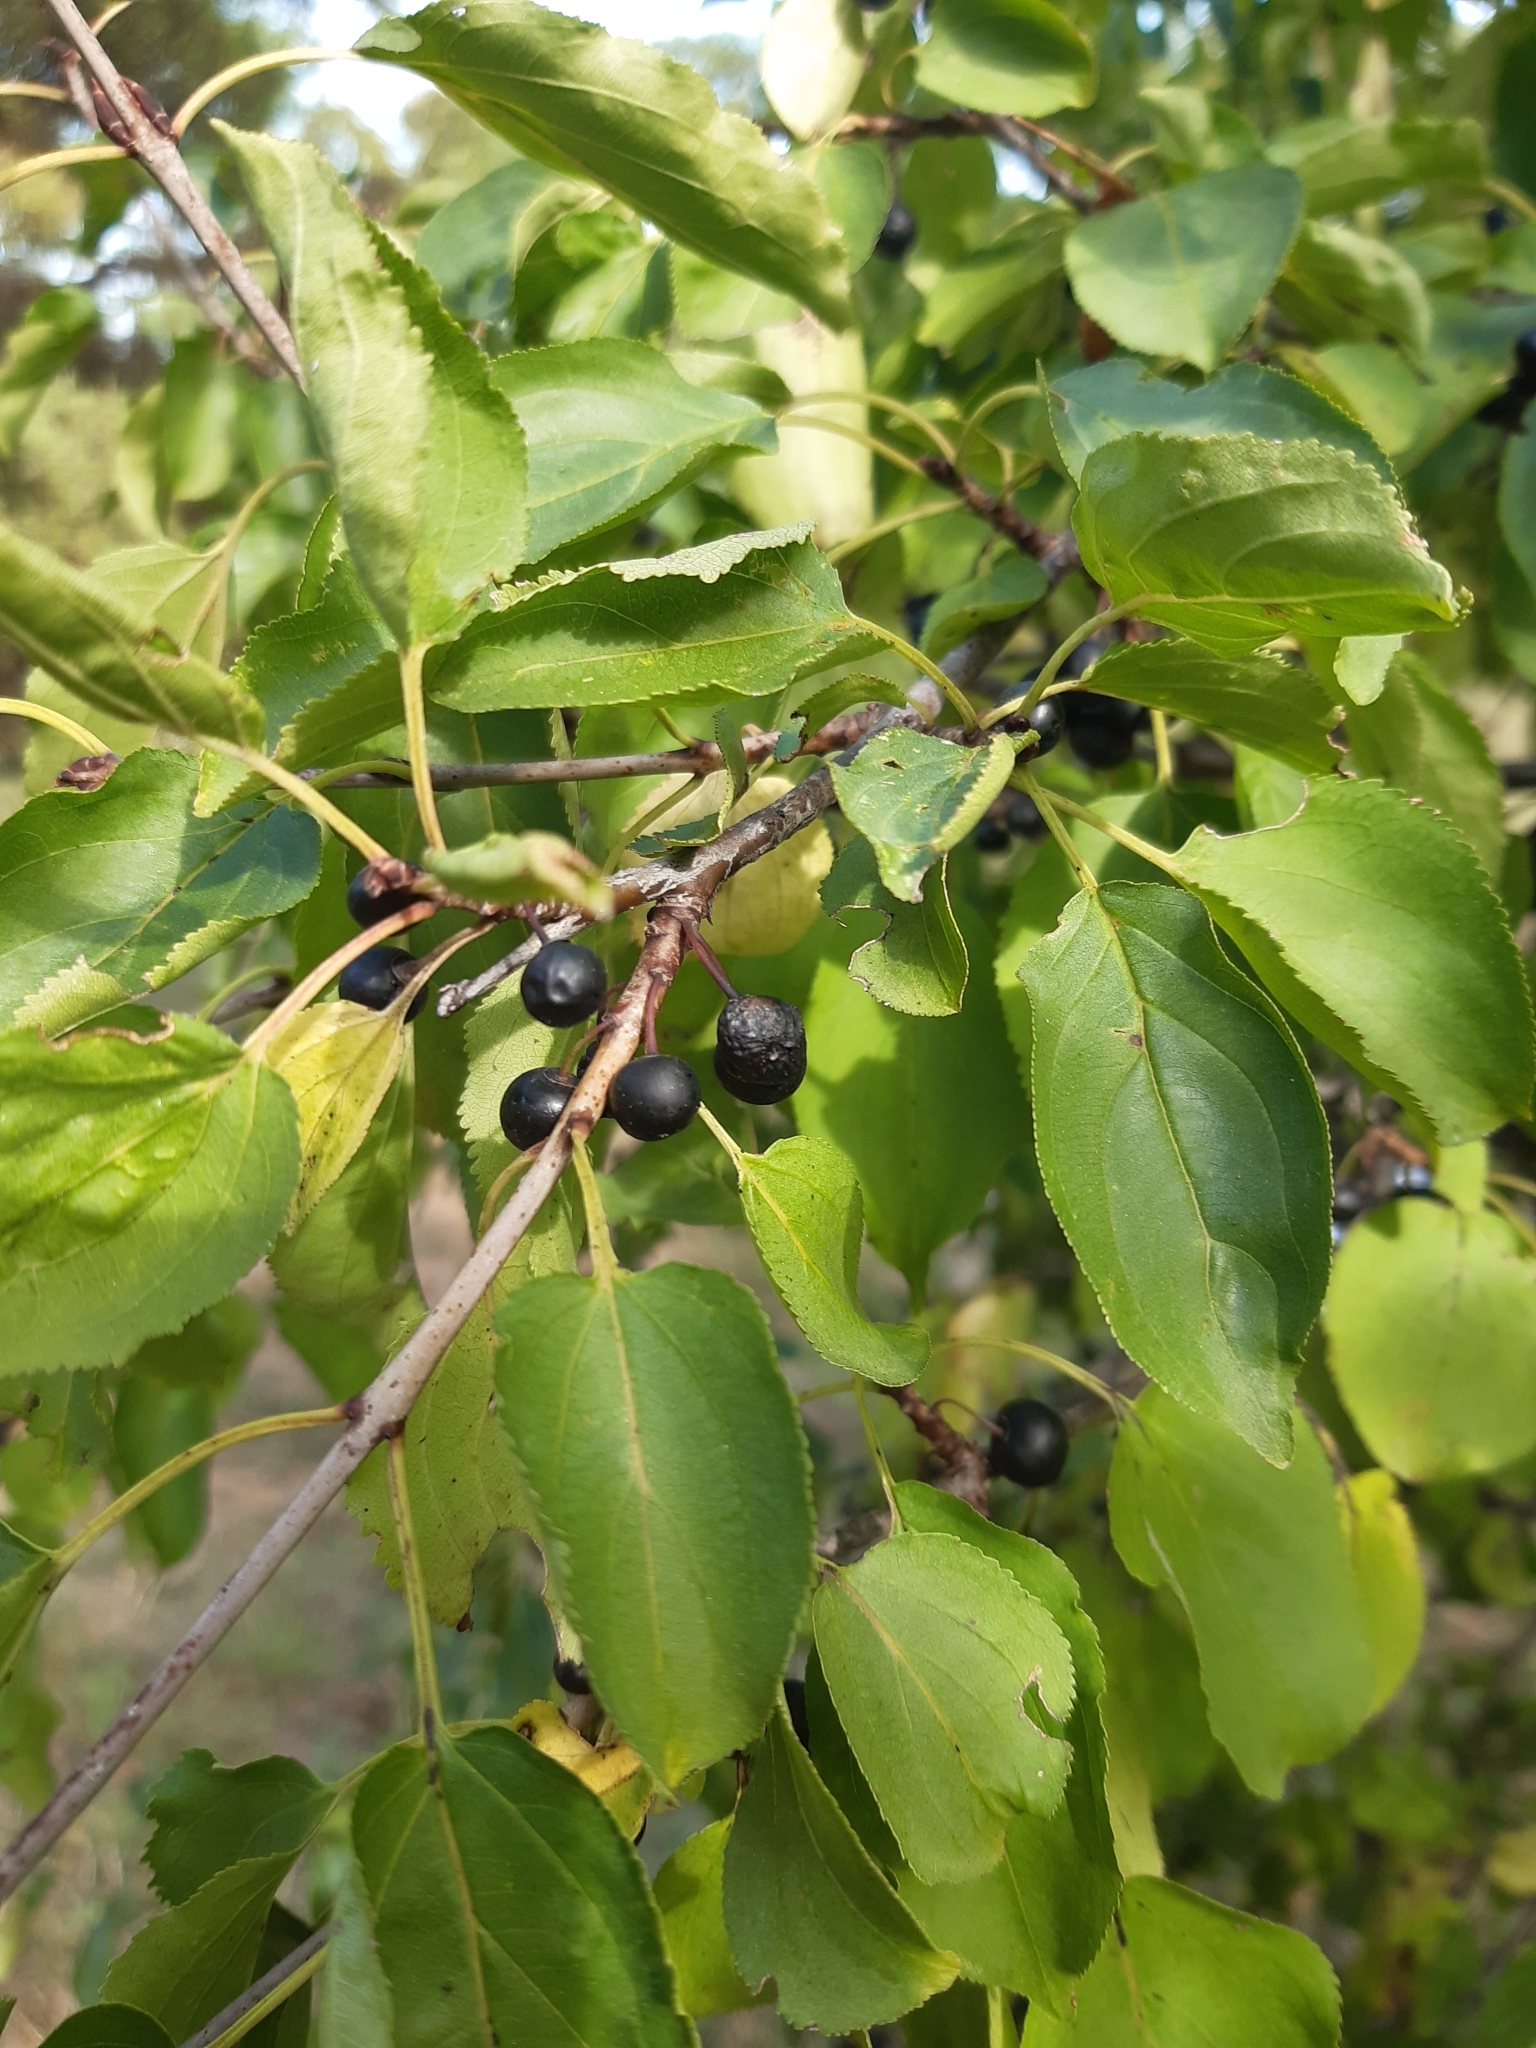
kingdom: Plantae
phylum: Tracheophyta
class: Magnoliopsida
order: Rosales
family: Rhamnaceae
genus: Rhamnus
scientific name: Rhamnus cathartica
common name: Common buckthorn
